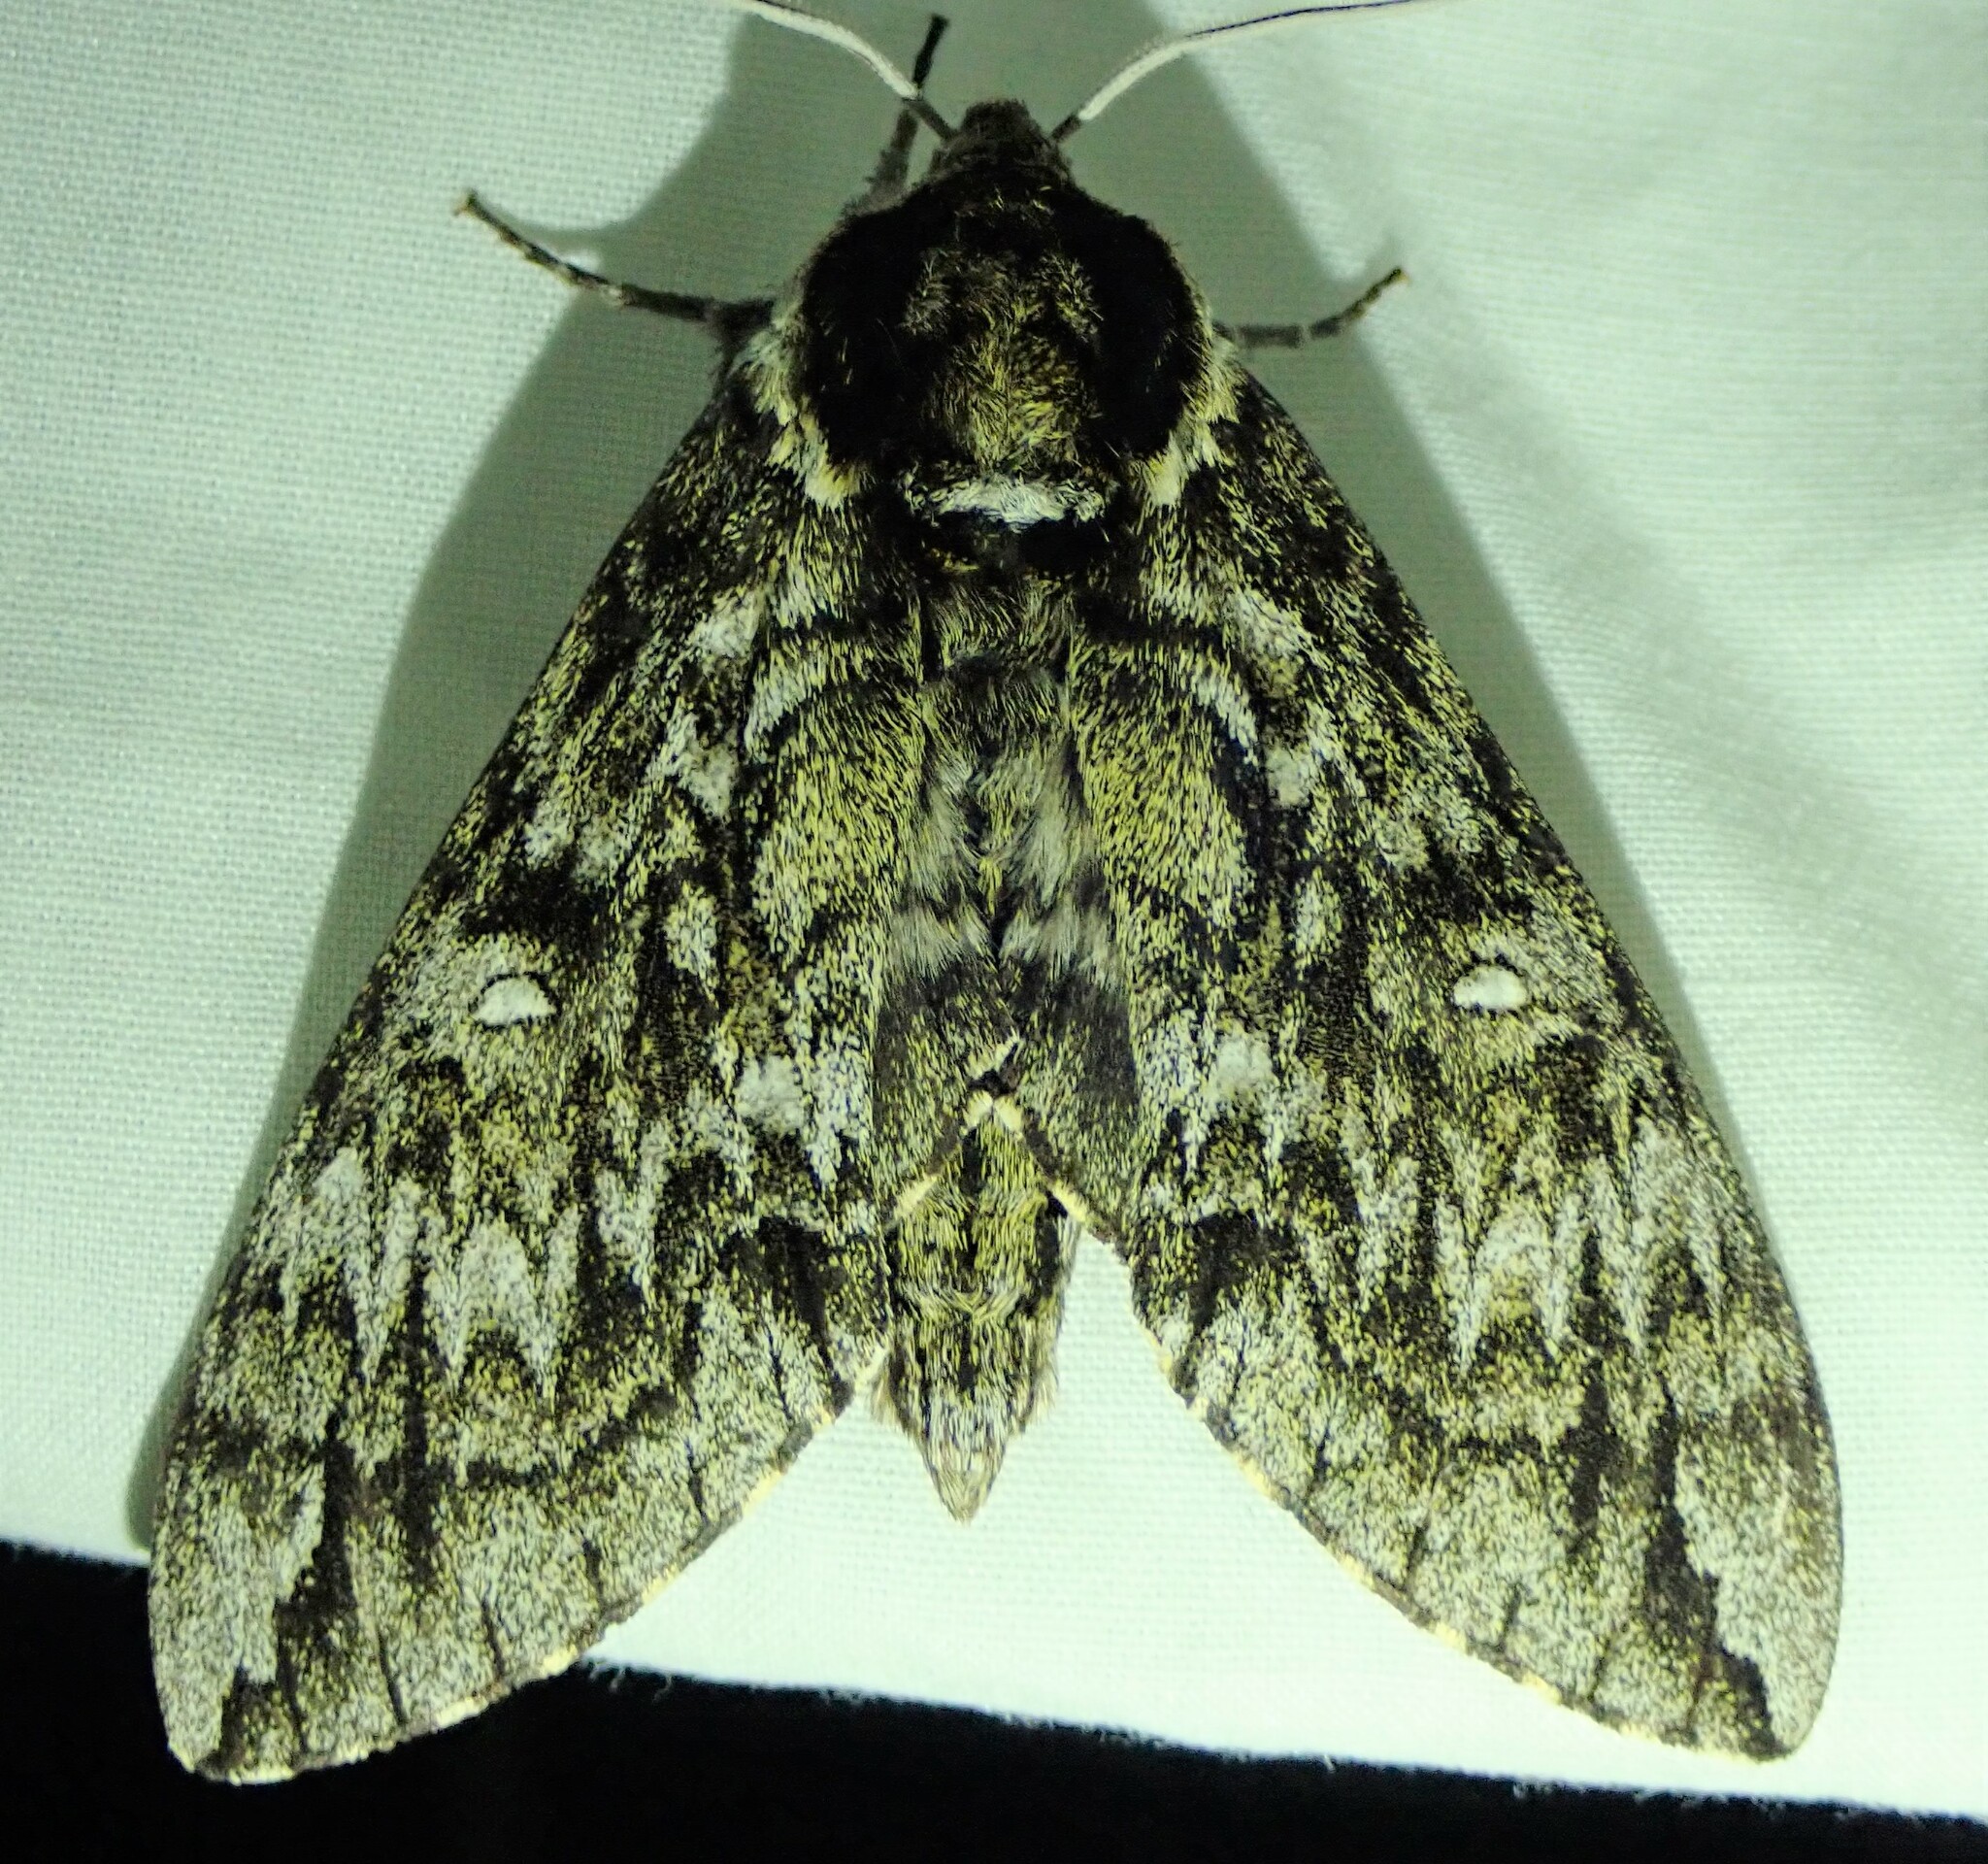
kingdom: Animalia
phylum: Arthropoda
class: Insecta
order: Lepidoptera
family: Sphingidae
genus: Ceratomia
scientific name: Ceratomia undulosa
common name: Waved sphinx
